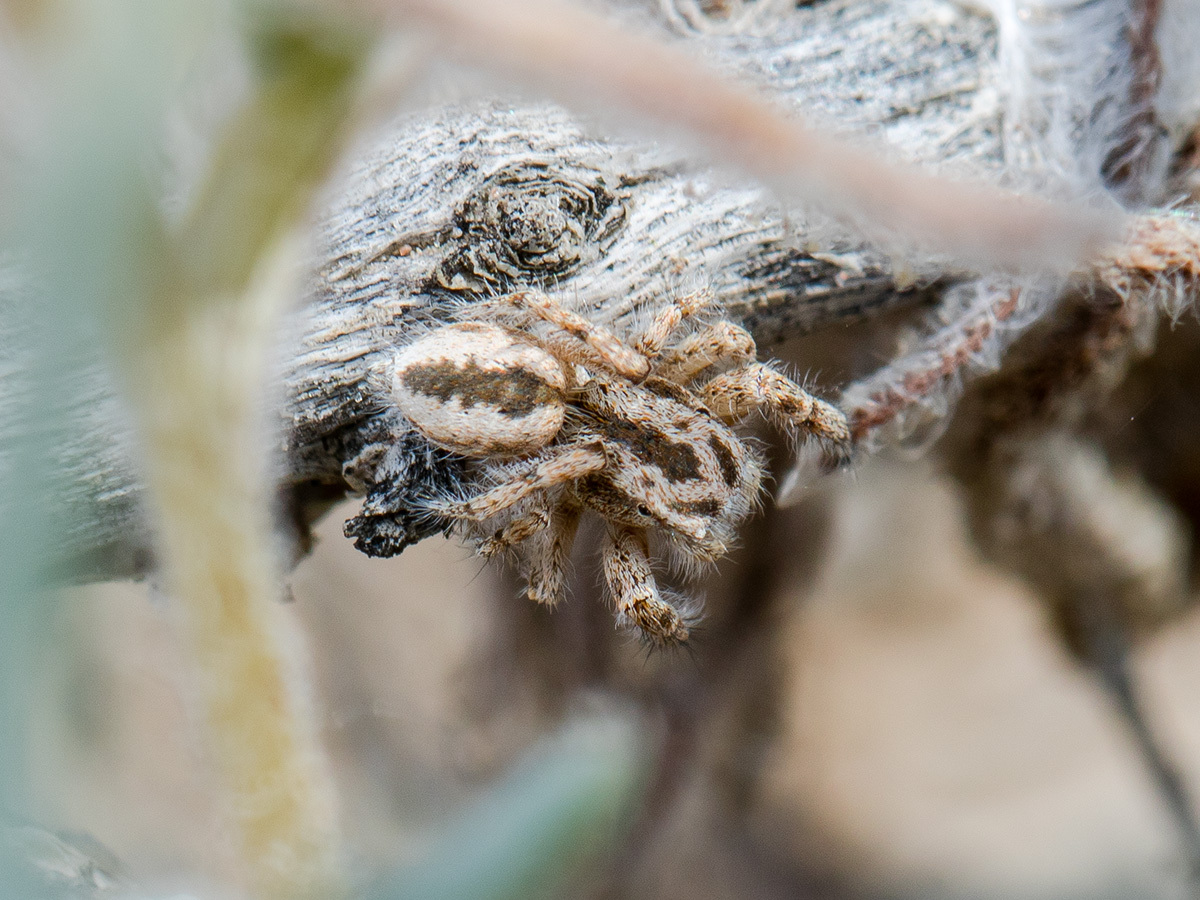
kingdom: Animalia
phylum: Arthropoda
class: Arachnida
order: Araneae
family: Salticidae
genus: Pseudomogrus
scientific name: Pseudomogrus guseinovi
